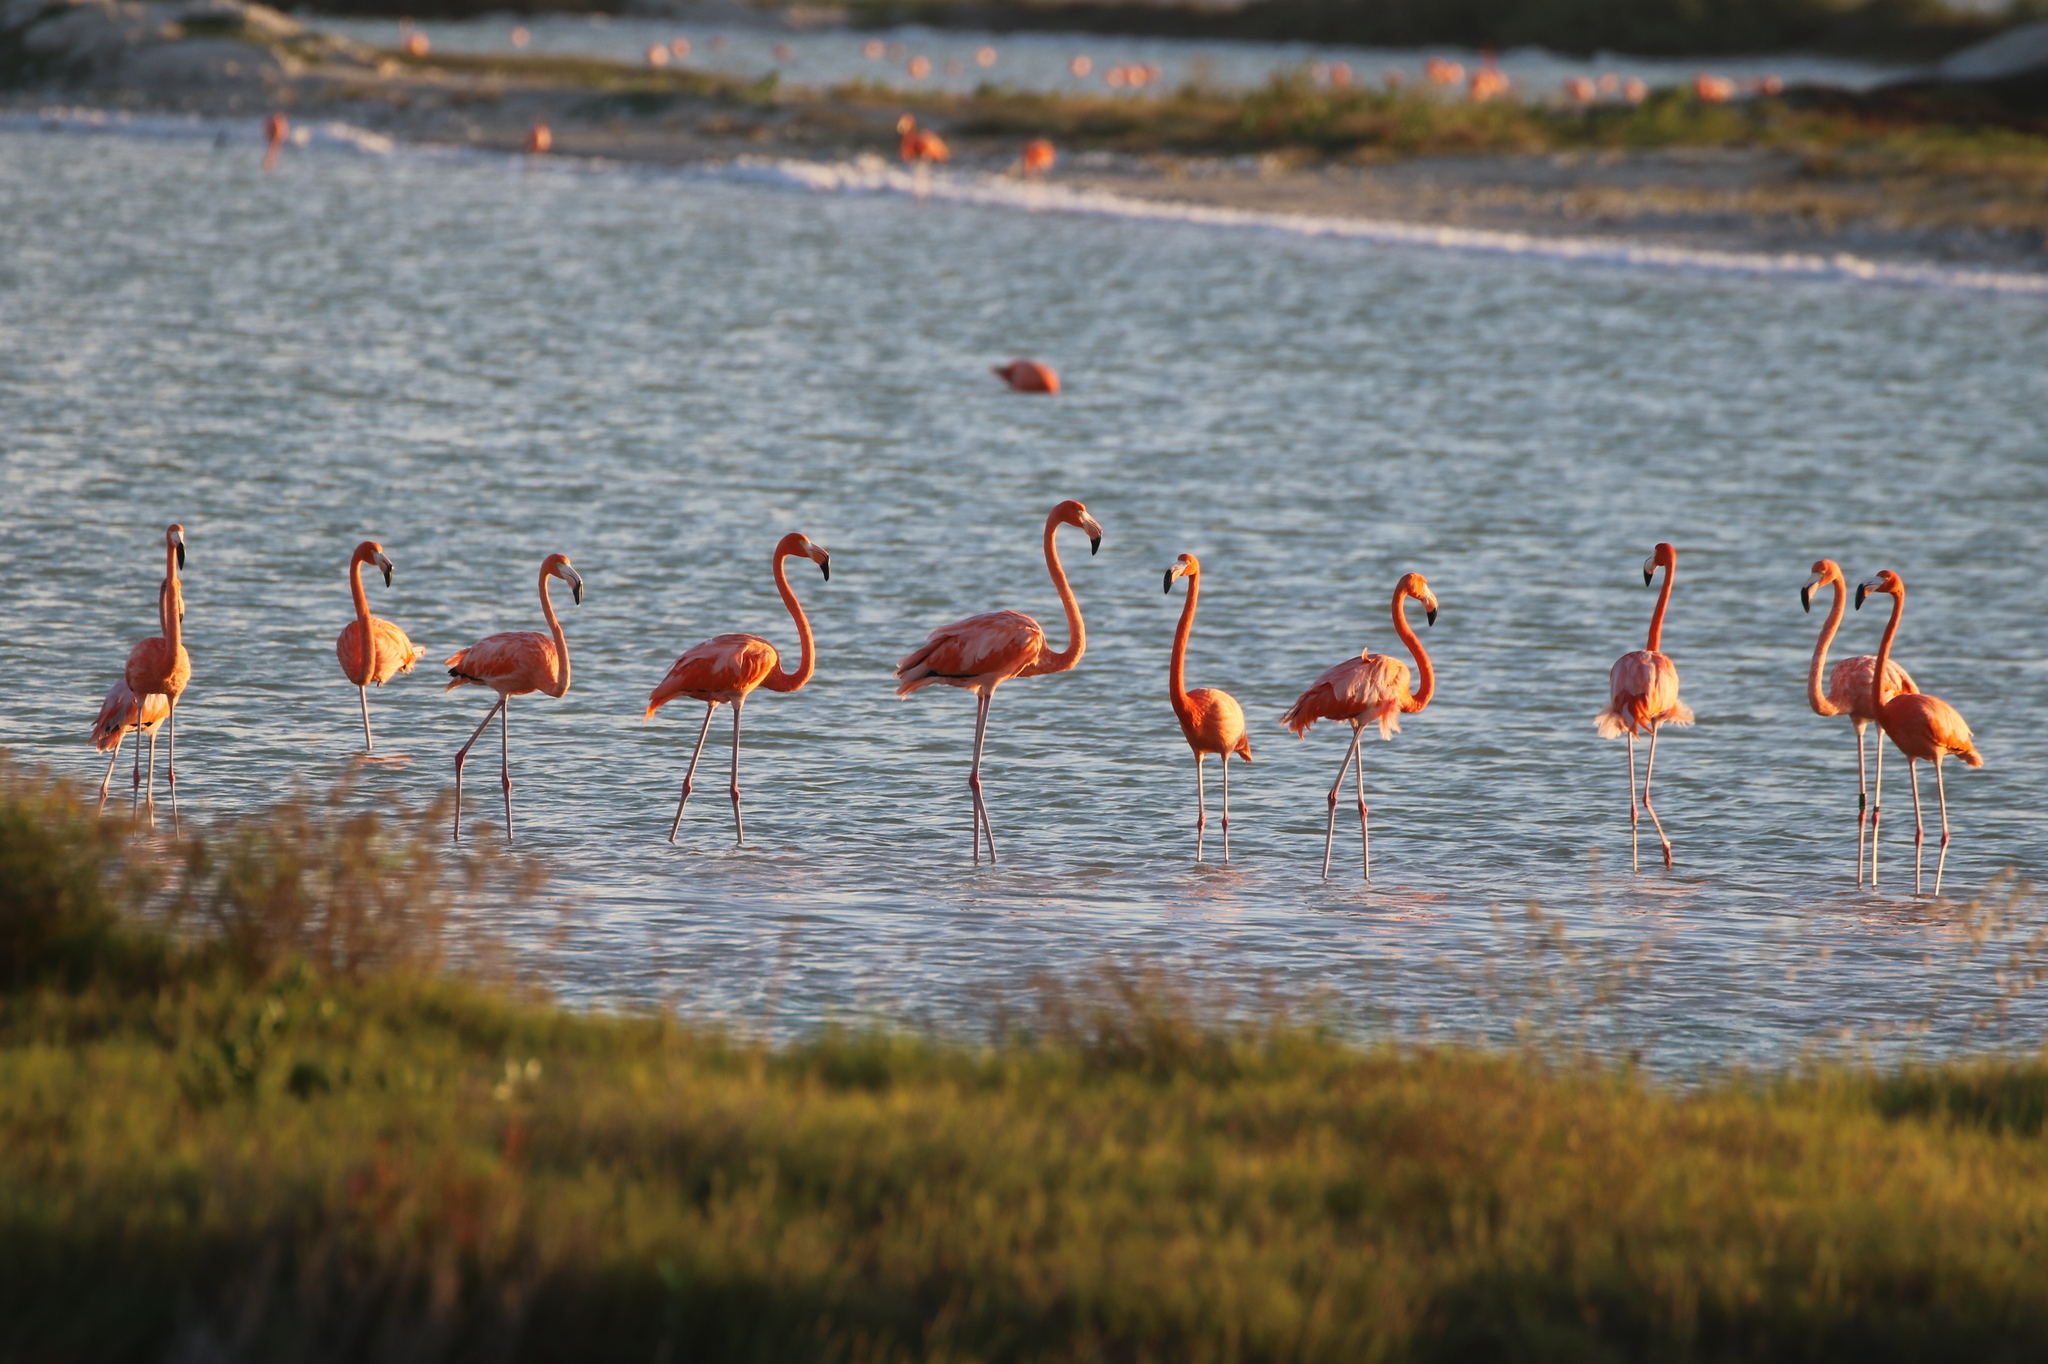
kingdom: Animalia
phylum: Chordata
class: Aves
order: Phoenicopteriformes
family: Phoenicopteridae
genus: Phoenicopterus
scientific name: Phoenicopterus ruber
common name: American flamingo
